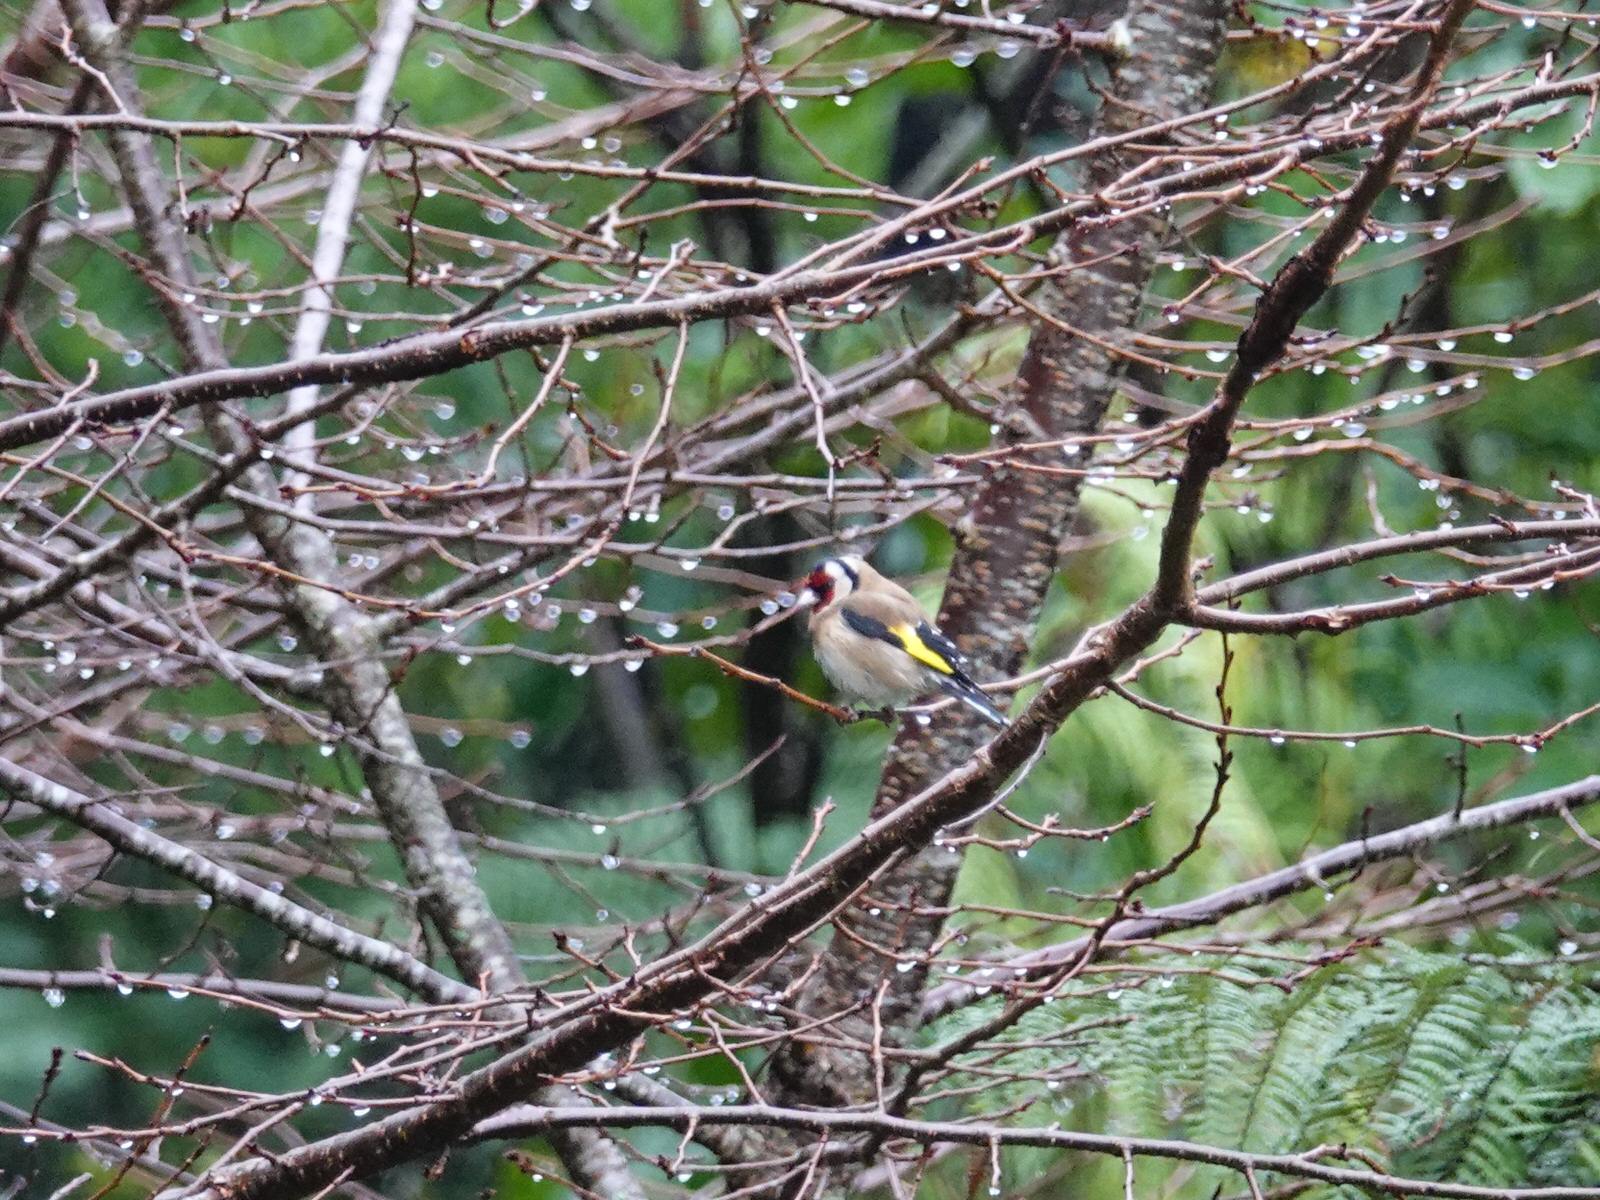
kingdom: Animalia
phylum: Chordata
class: Aves
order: Passeriformes
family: Fringillidae
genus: Carduelis
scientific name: Carduelis carduelis
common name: European goldfinch
